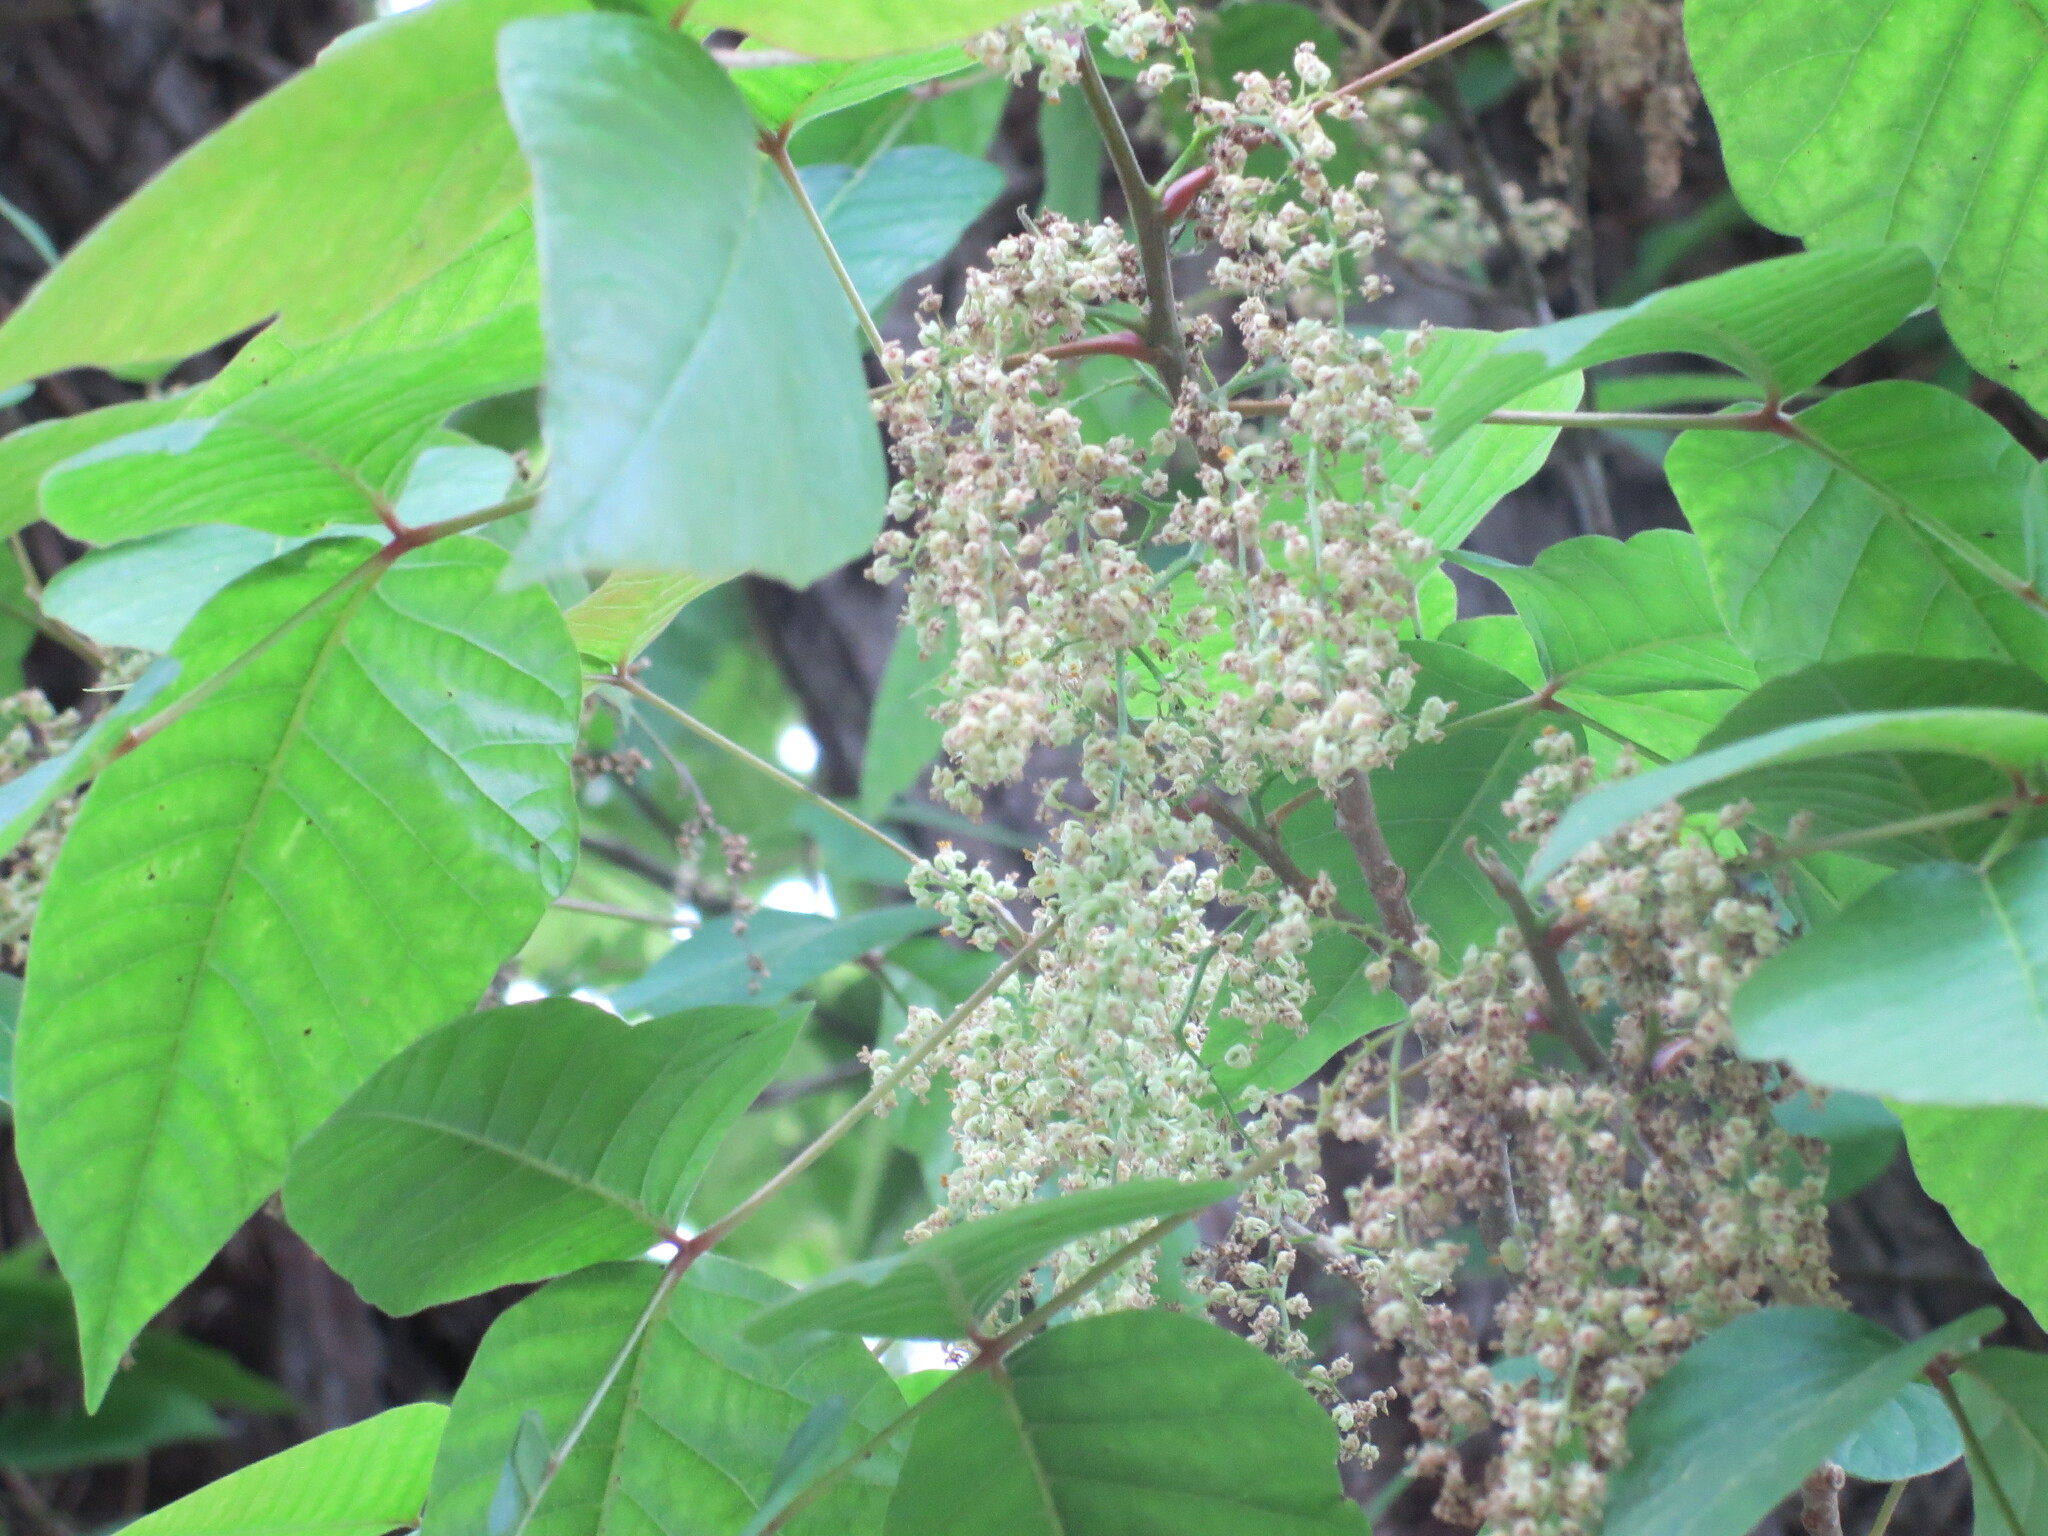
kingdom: Plantae
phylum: Tracheophyta
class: Magnoliopsida
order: Sapindales
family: Anacardiaceae
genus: Toxicodendron
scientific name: Toxicodendron radicans
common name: Poison ivy
